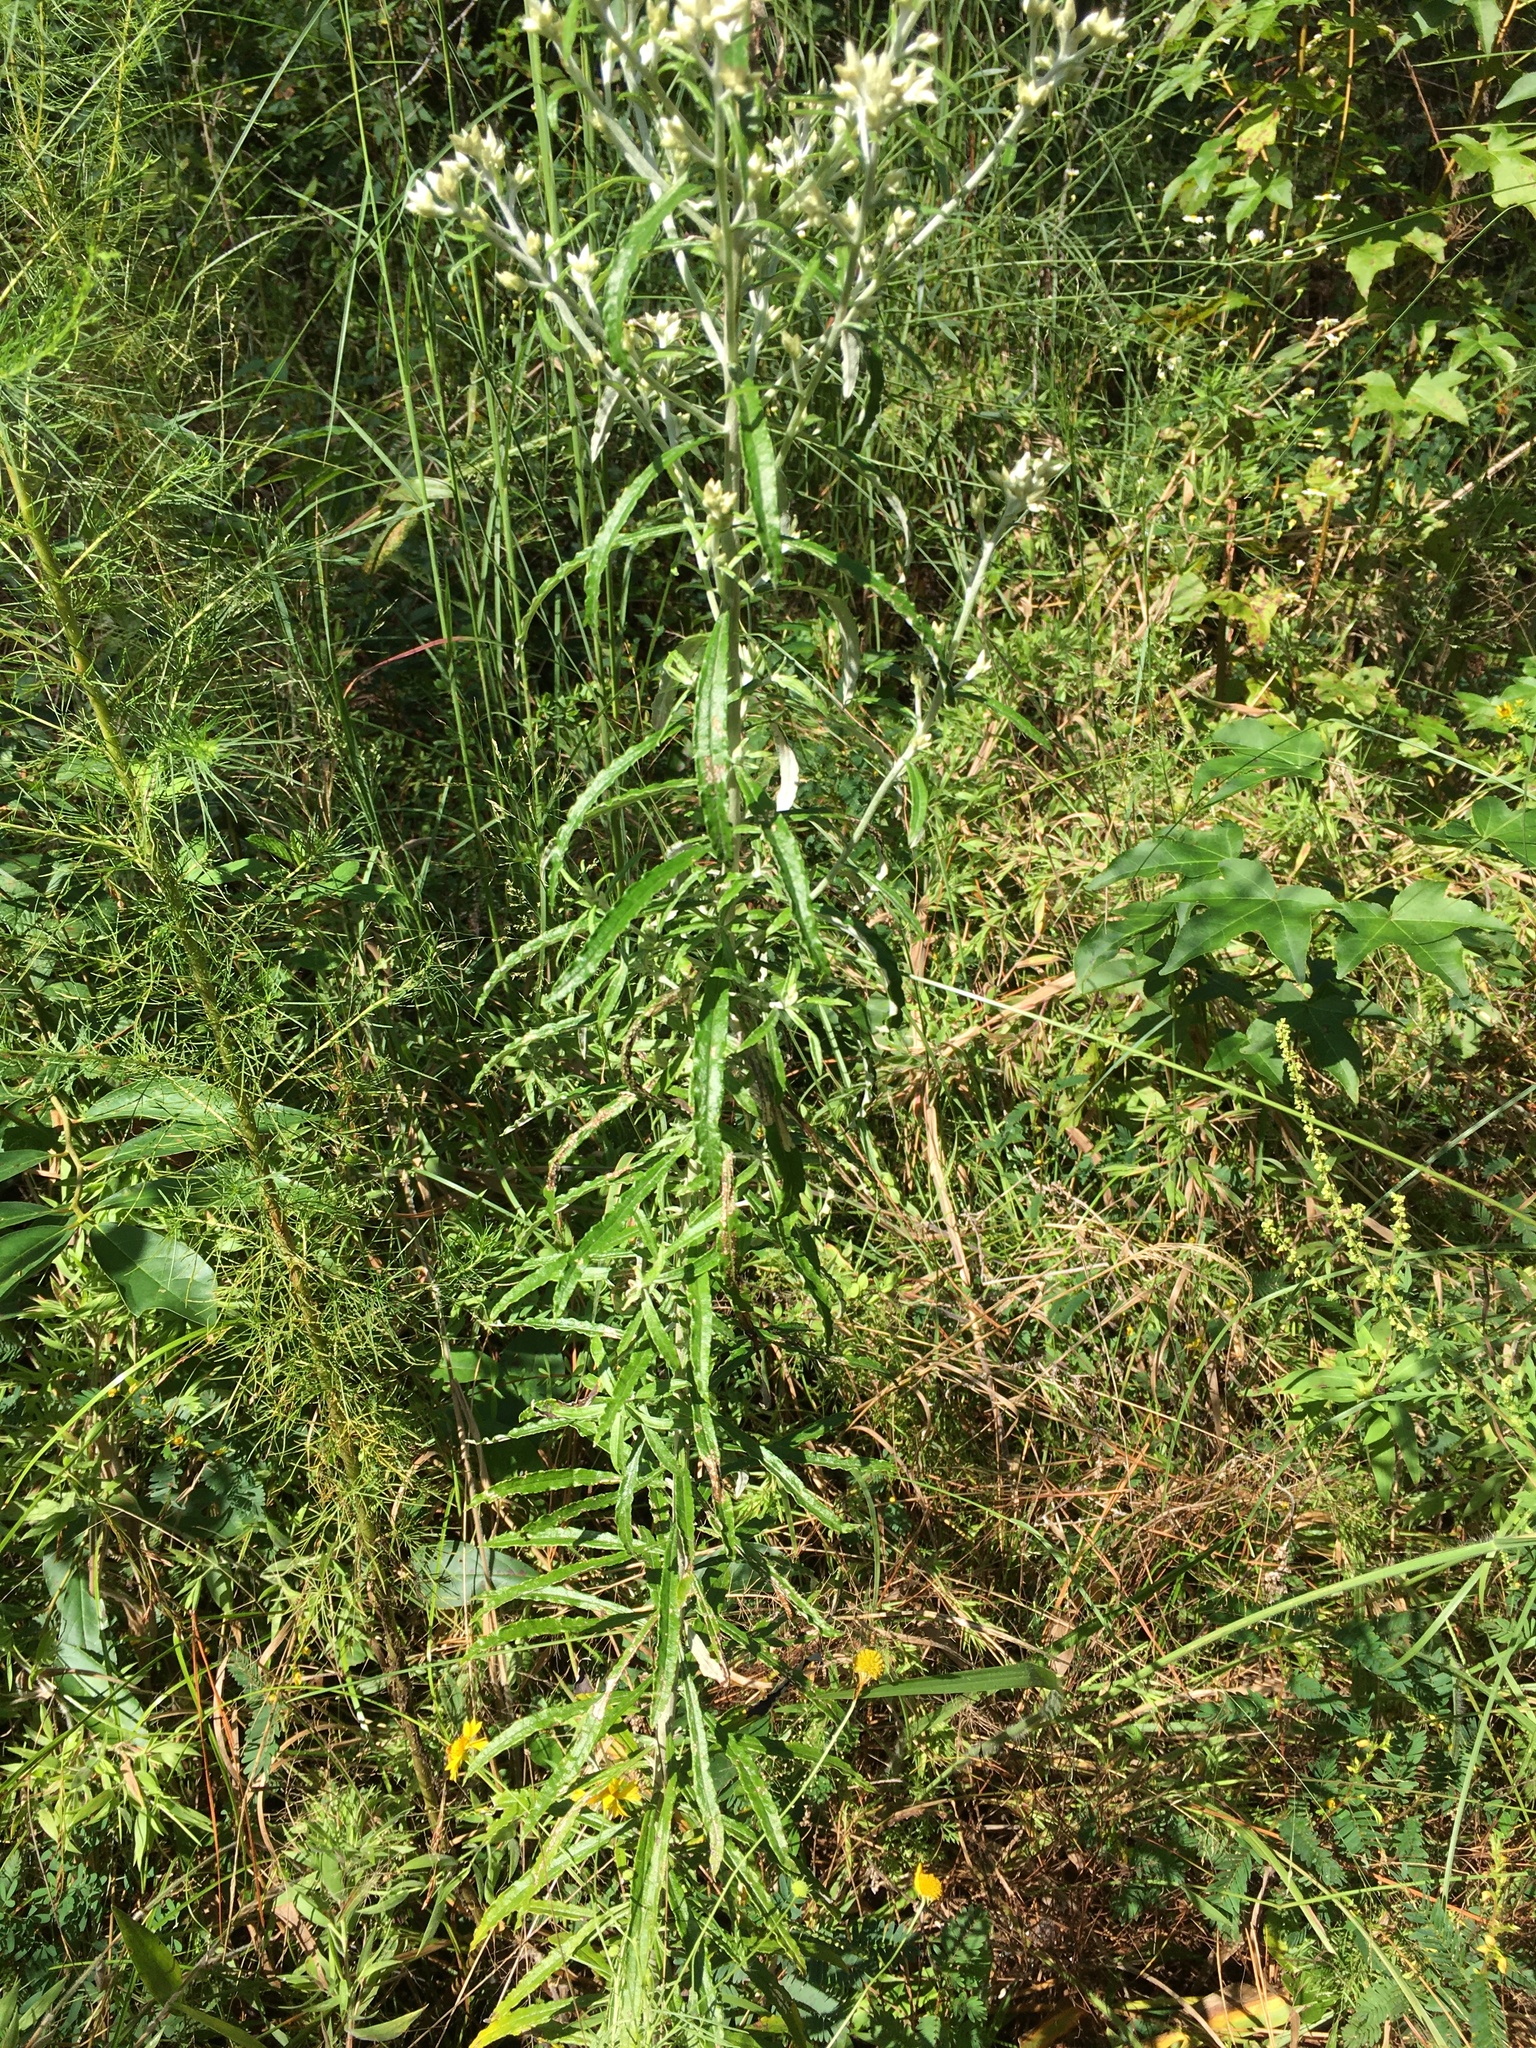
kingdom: Plantae
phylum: Tracheophyta
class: Magnoliopsida
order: Asterales
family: Asteraceae
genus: Pseudognaphalium
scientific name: Pseudognaphalium obtusifolium
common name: Eastern rabbit-tobacco
